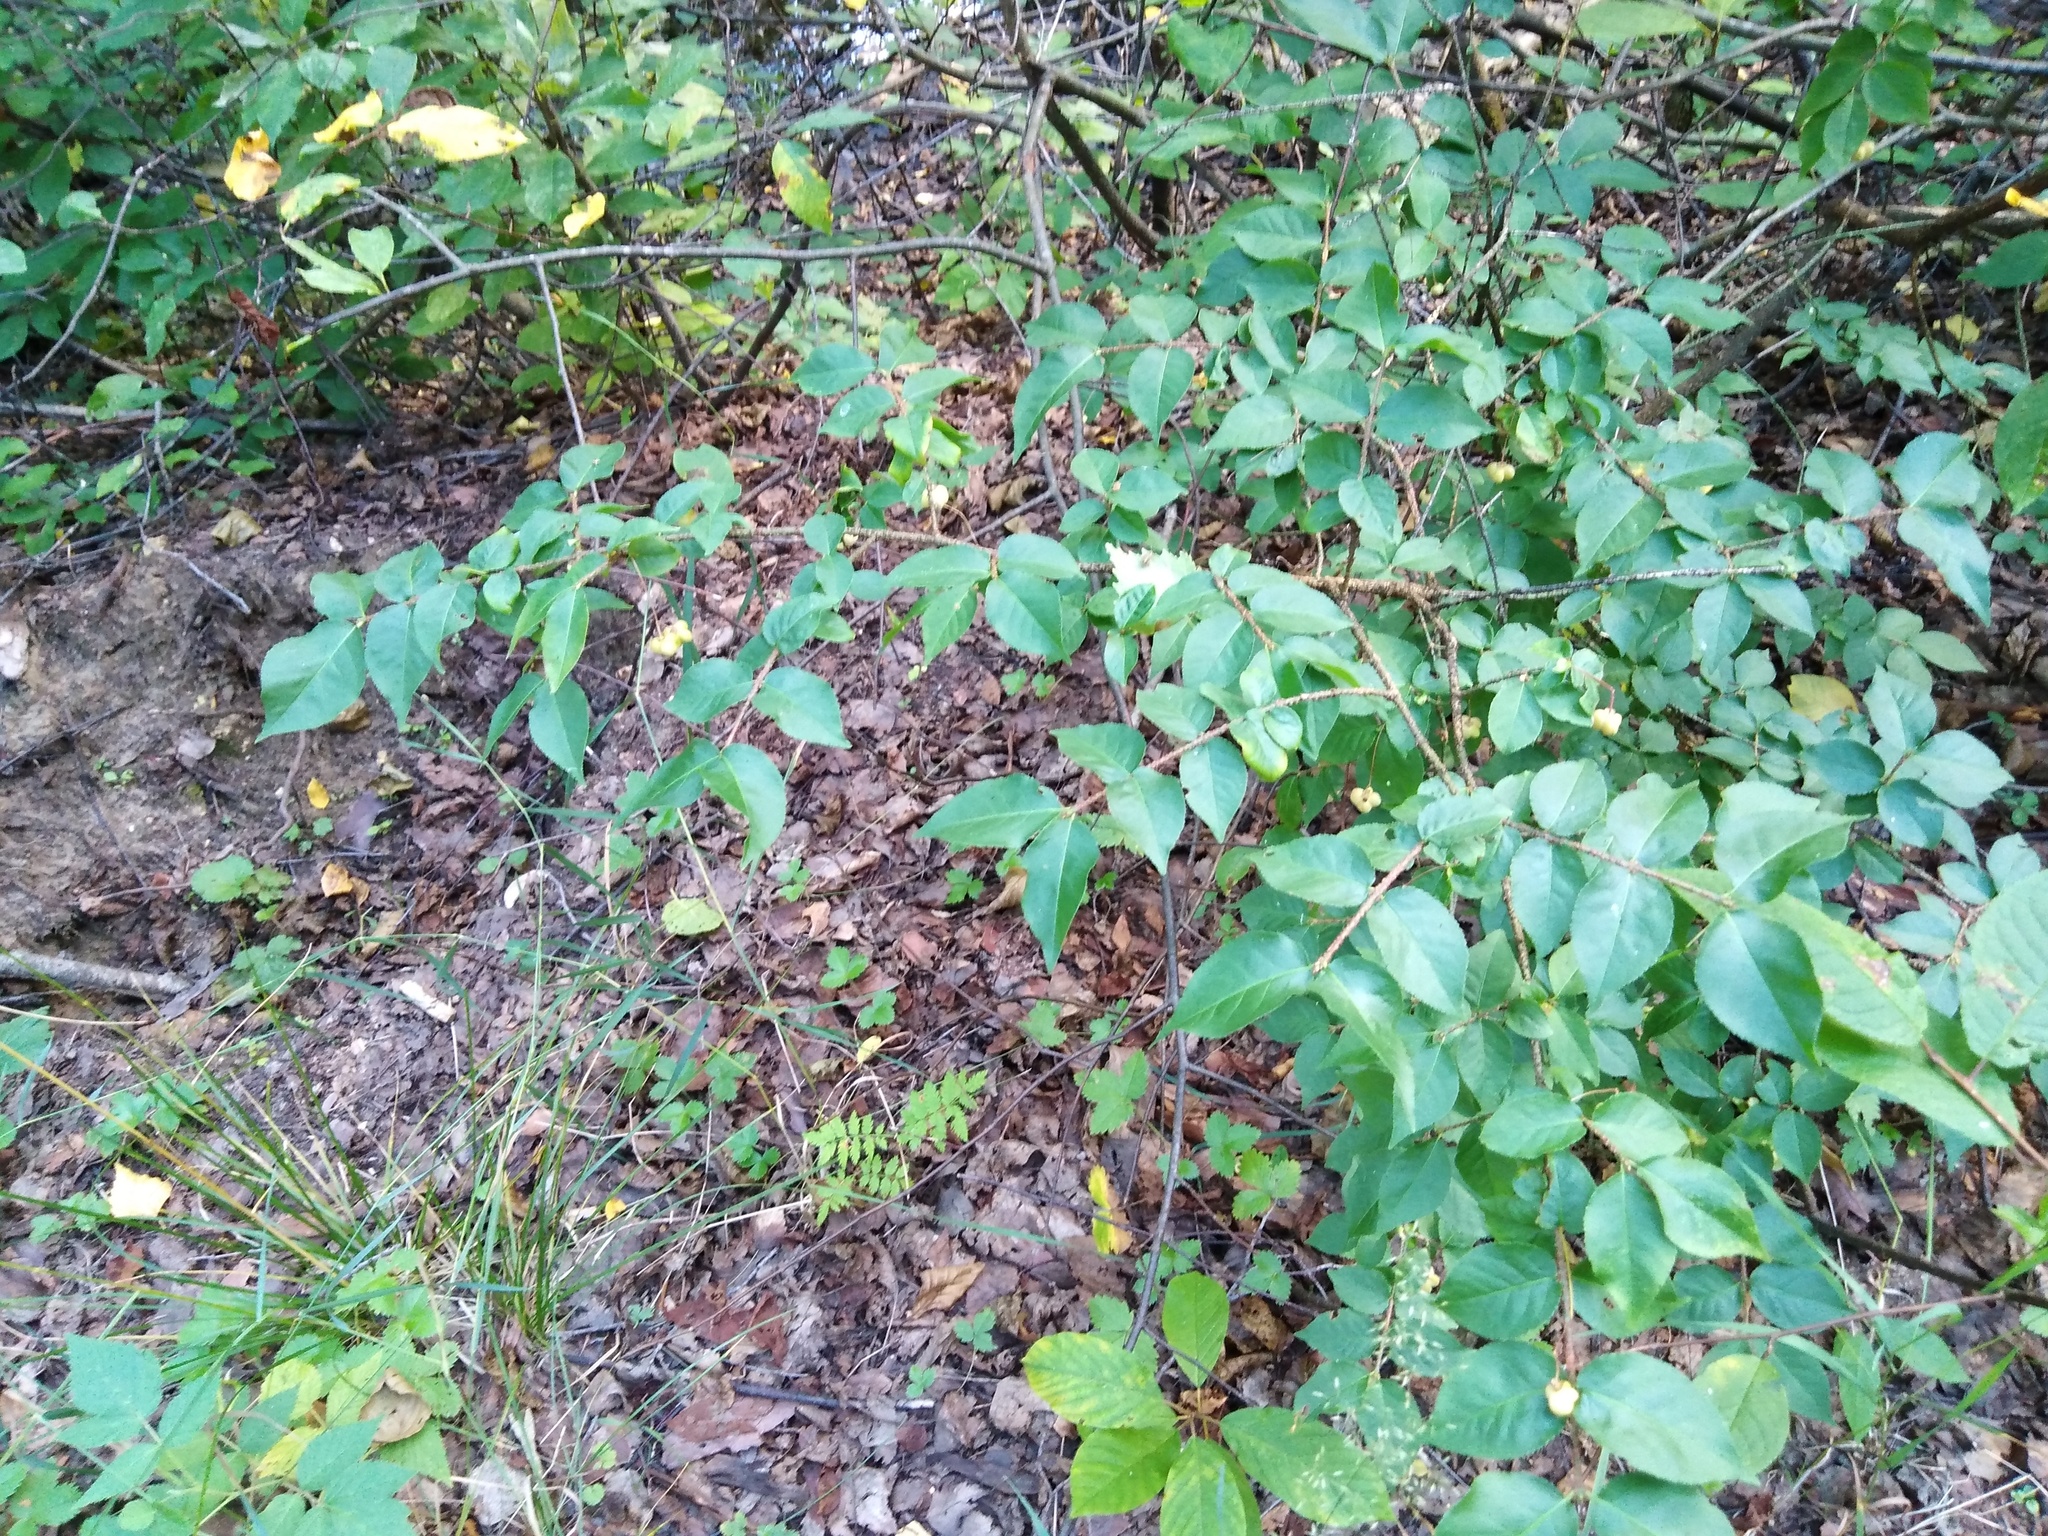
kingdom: Plantae
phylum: Tracheophyta
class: Magnoliopsida
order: Celastrales
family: Celastraceae
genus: Euonymus
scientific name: Euonymus verrucosus
